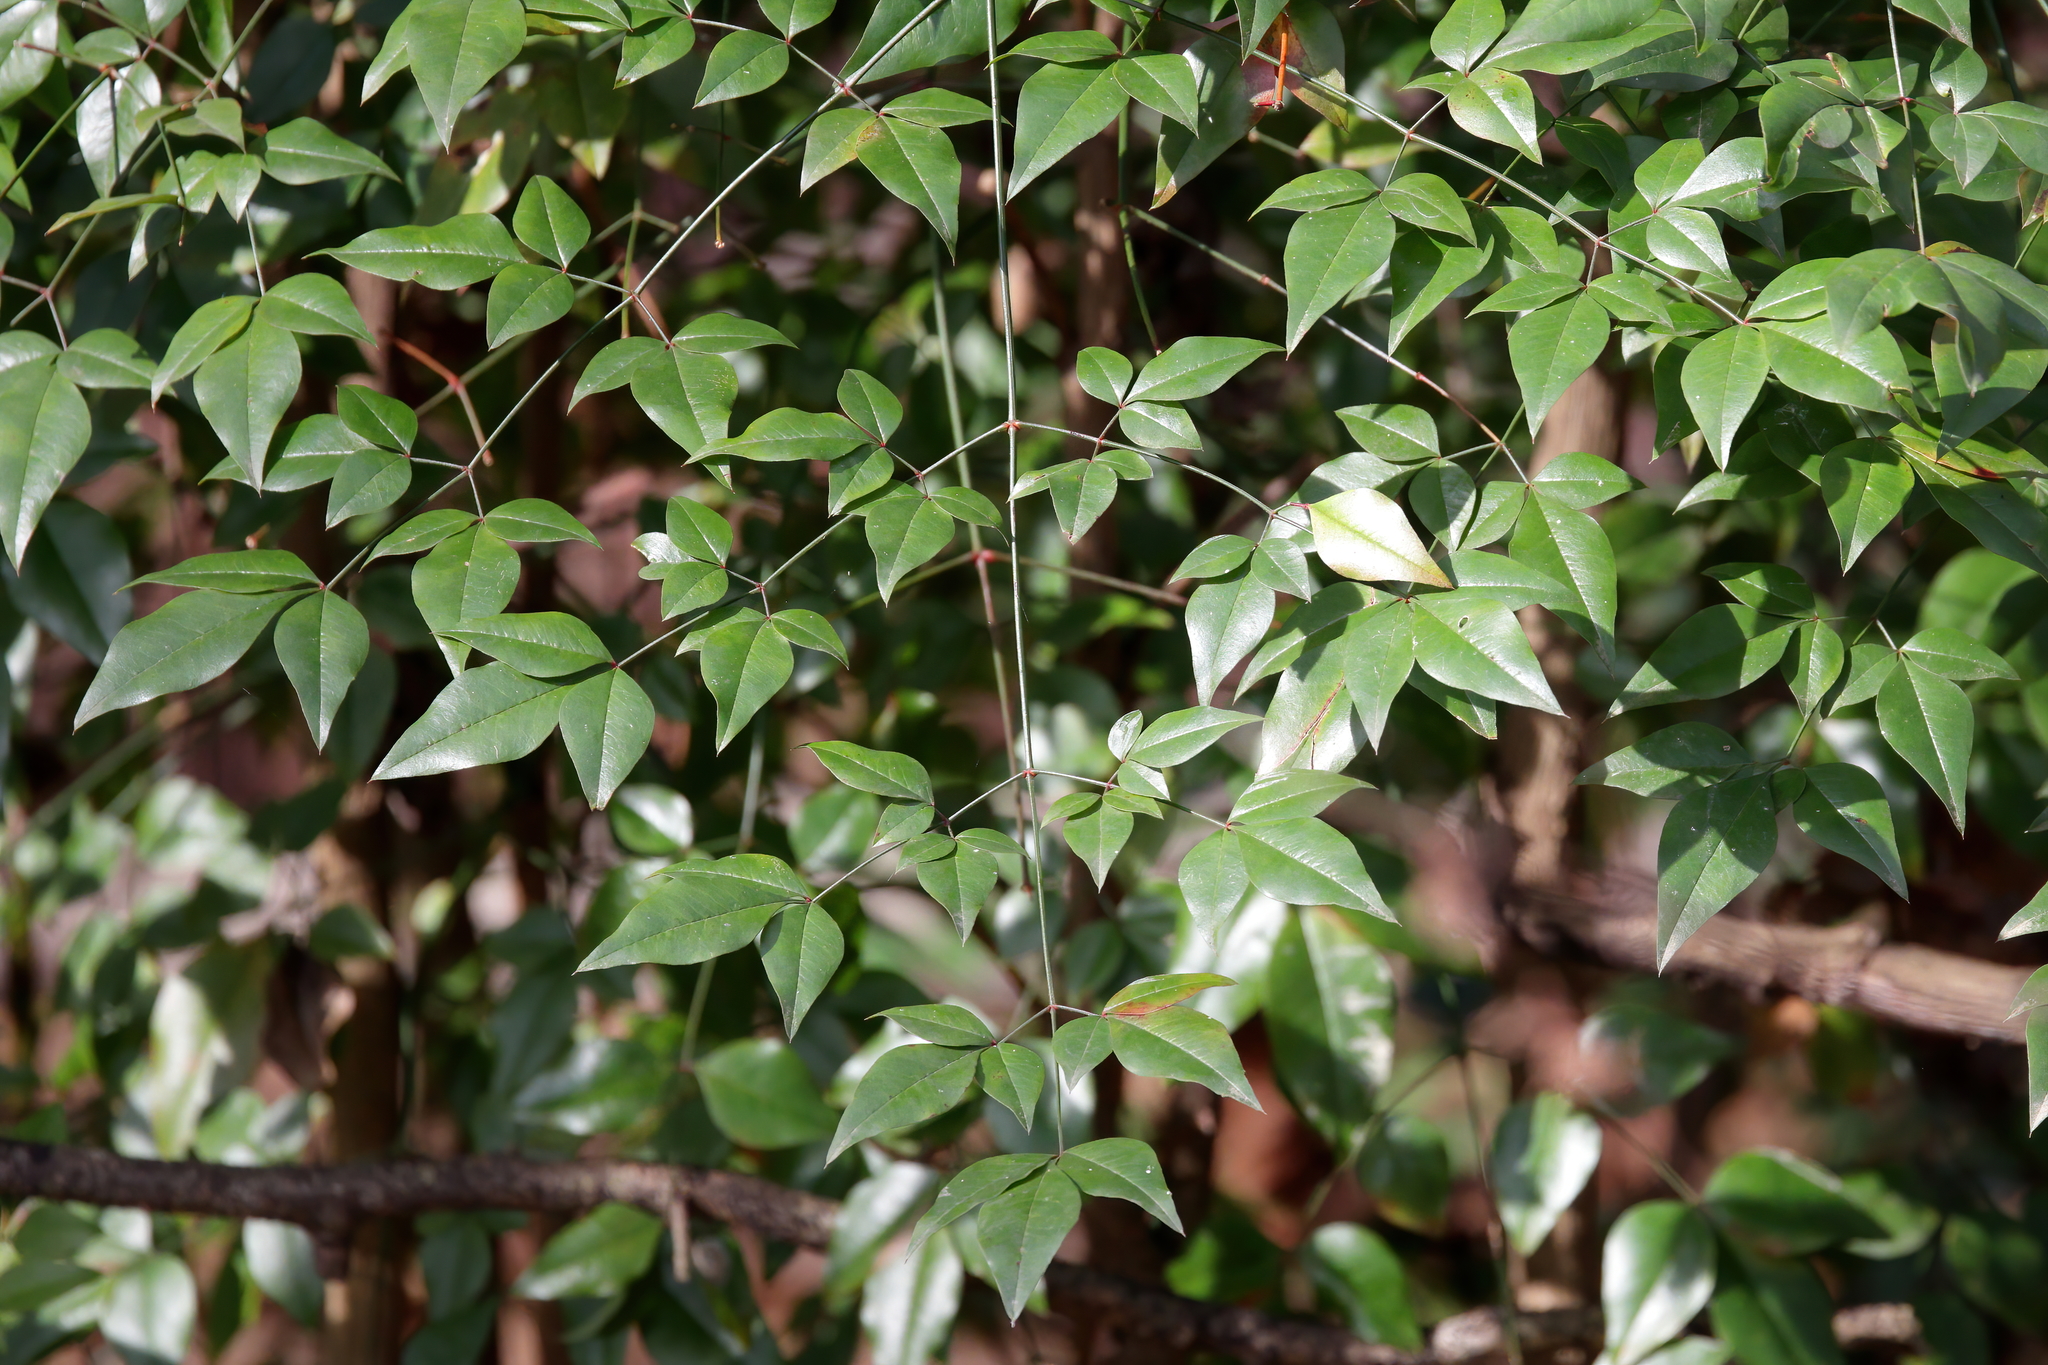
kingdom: Plantae
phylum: Tracheophyta
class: Magnoliopsida
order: Ranunculales
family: Berberidaceae
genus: Nandina
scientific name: Nandina domestica
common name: Sacred bamboo
